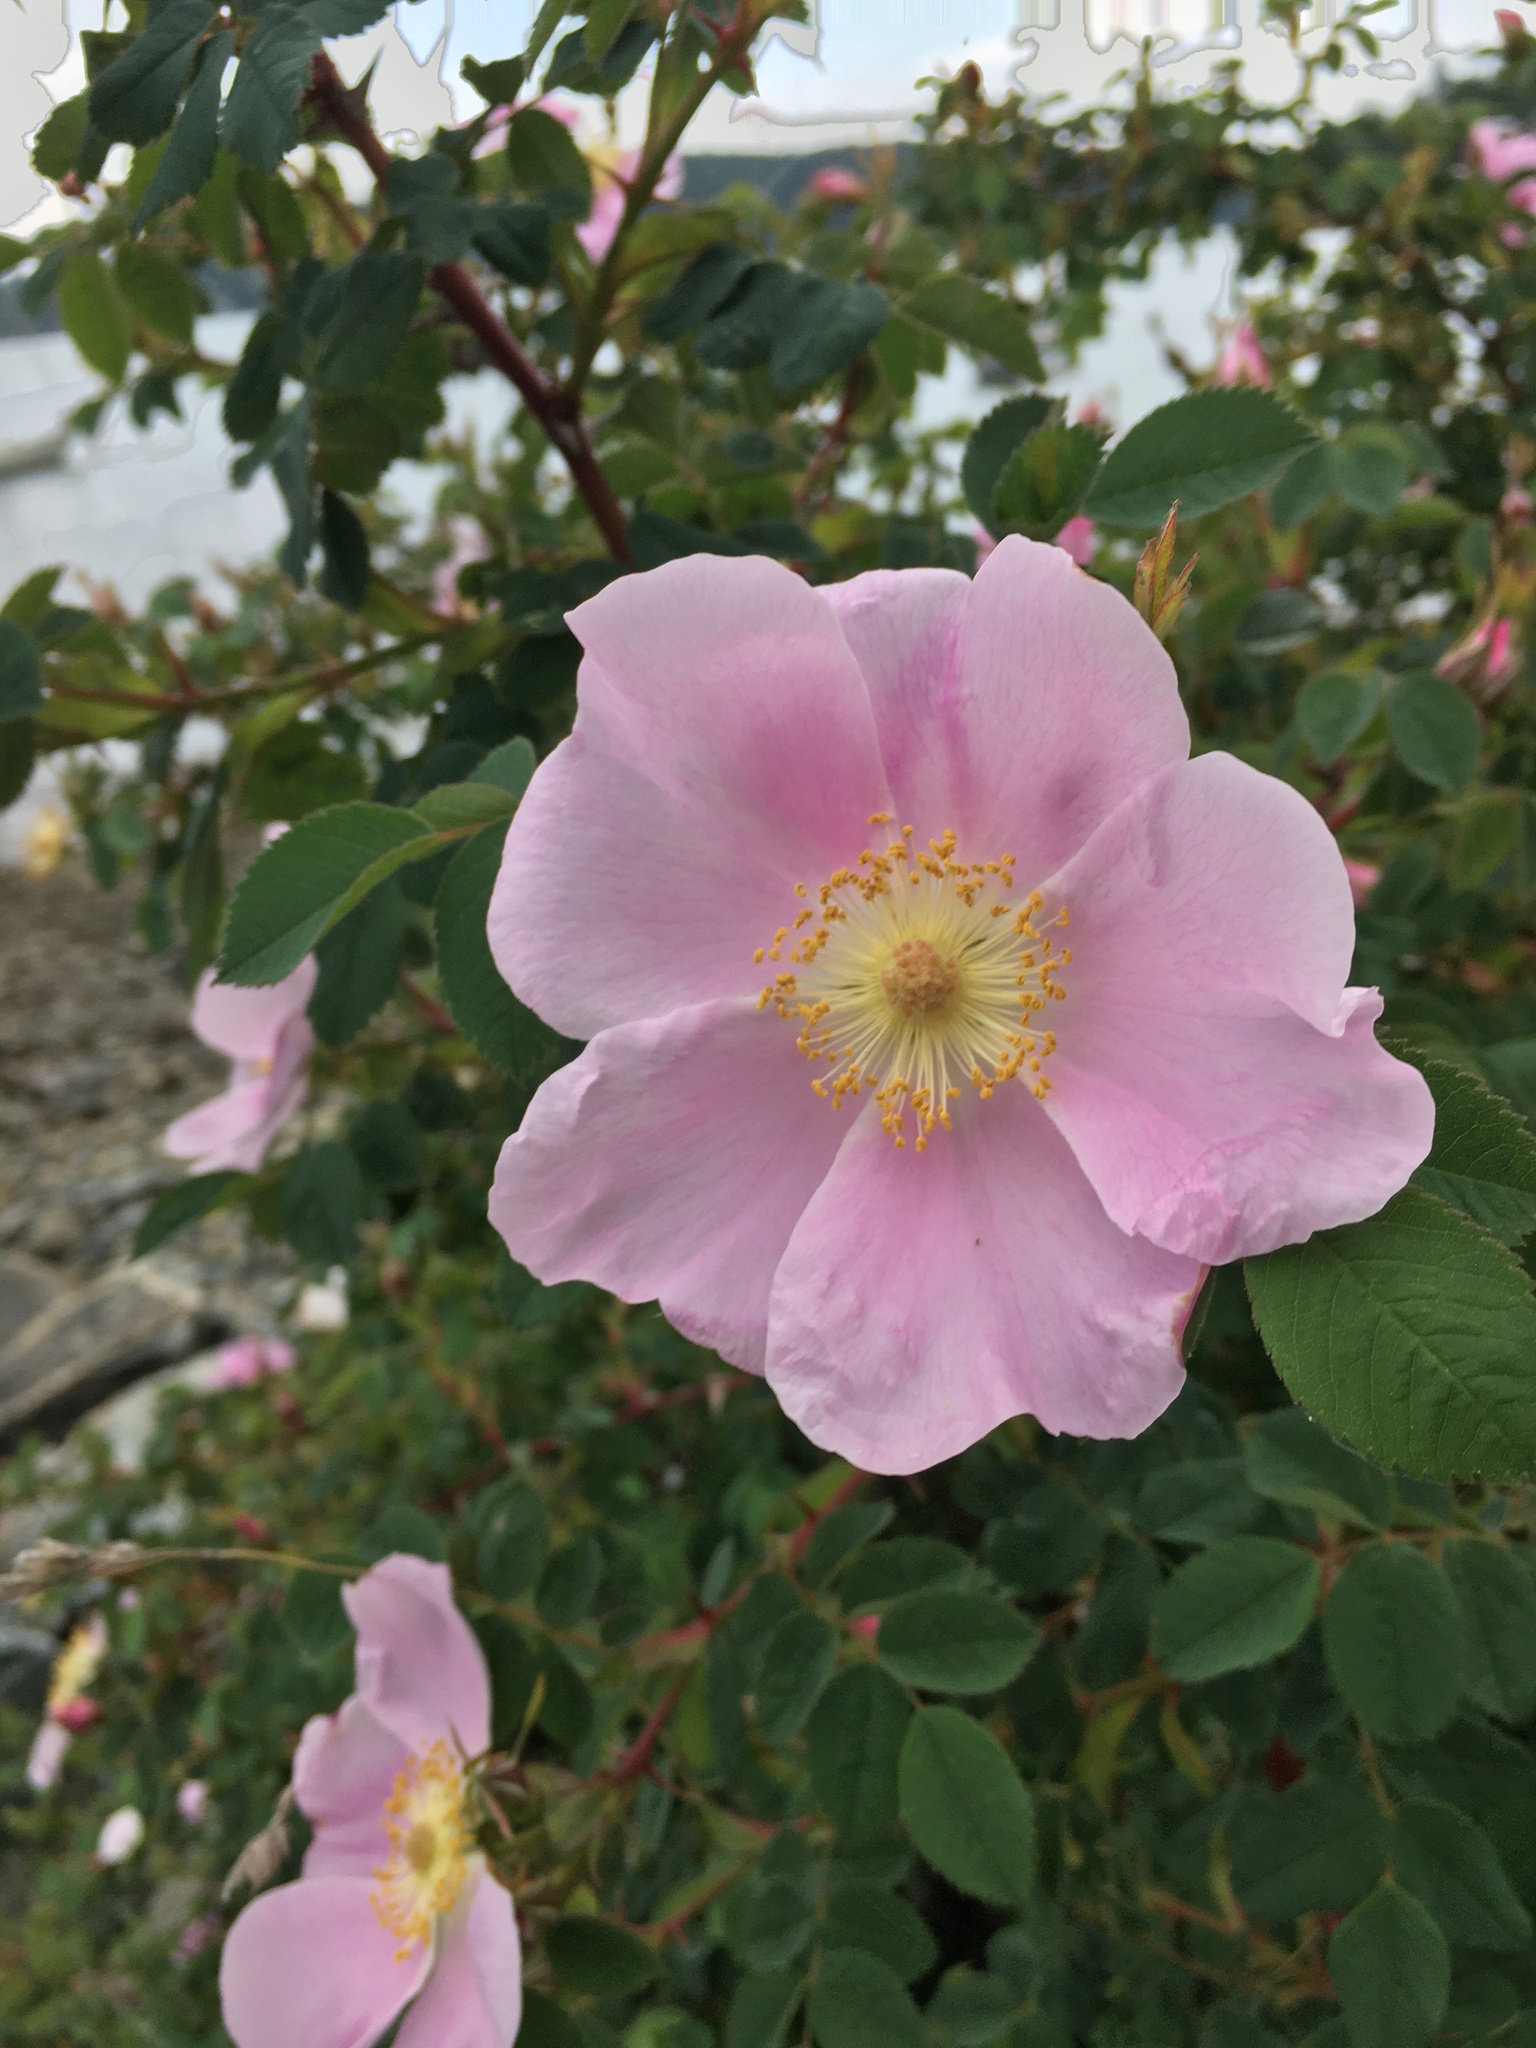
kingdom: Plantae
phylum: Tracheophyta
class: Magnoliopsida
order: Rosales
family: Rosaceae
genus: Rosa
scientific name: Rosa nutkana
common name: Nootka rose
